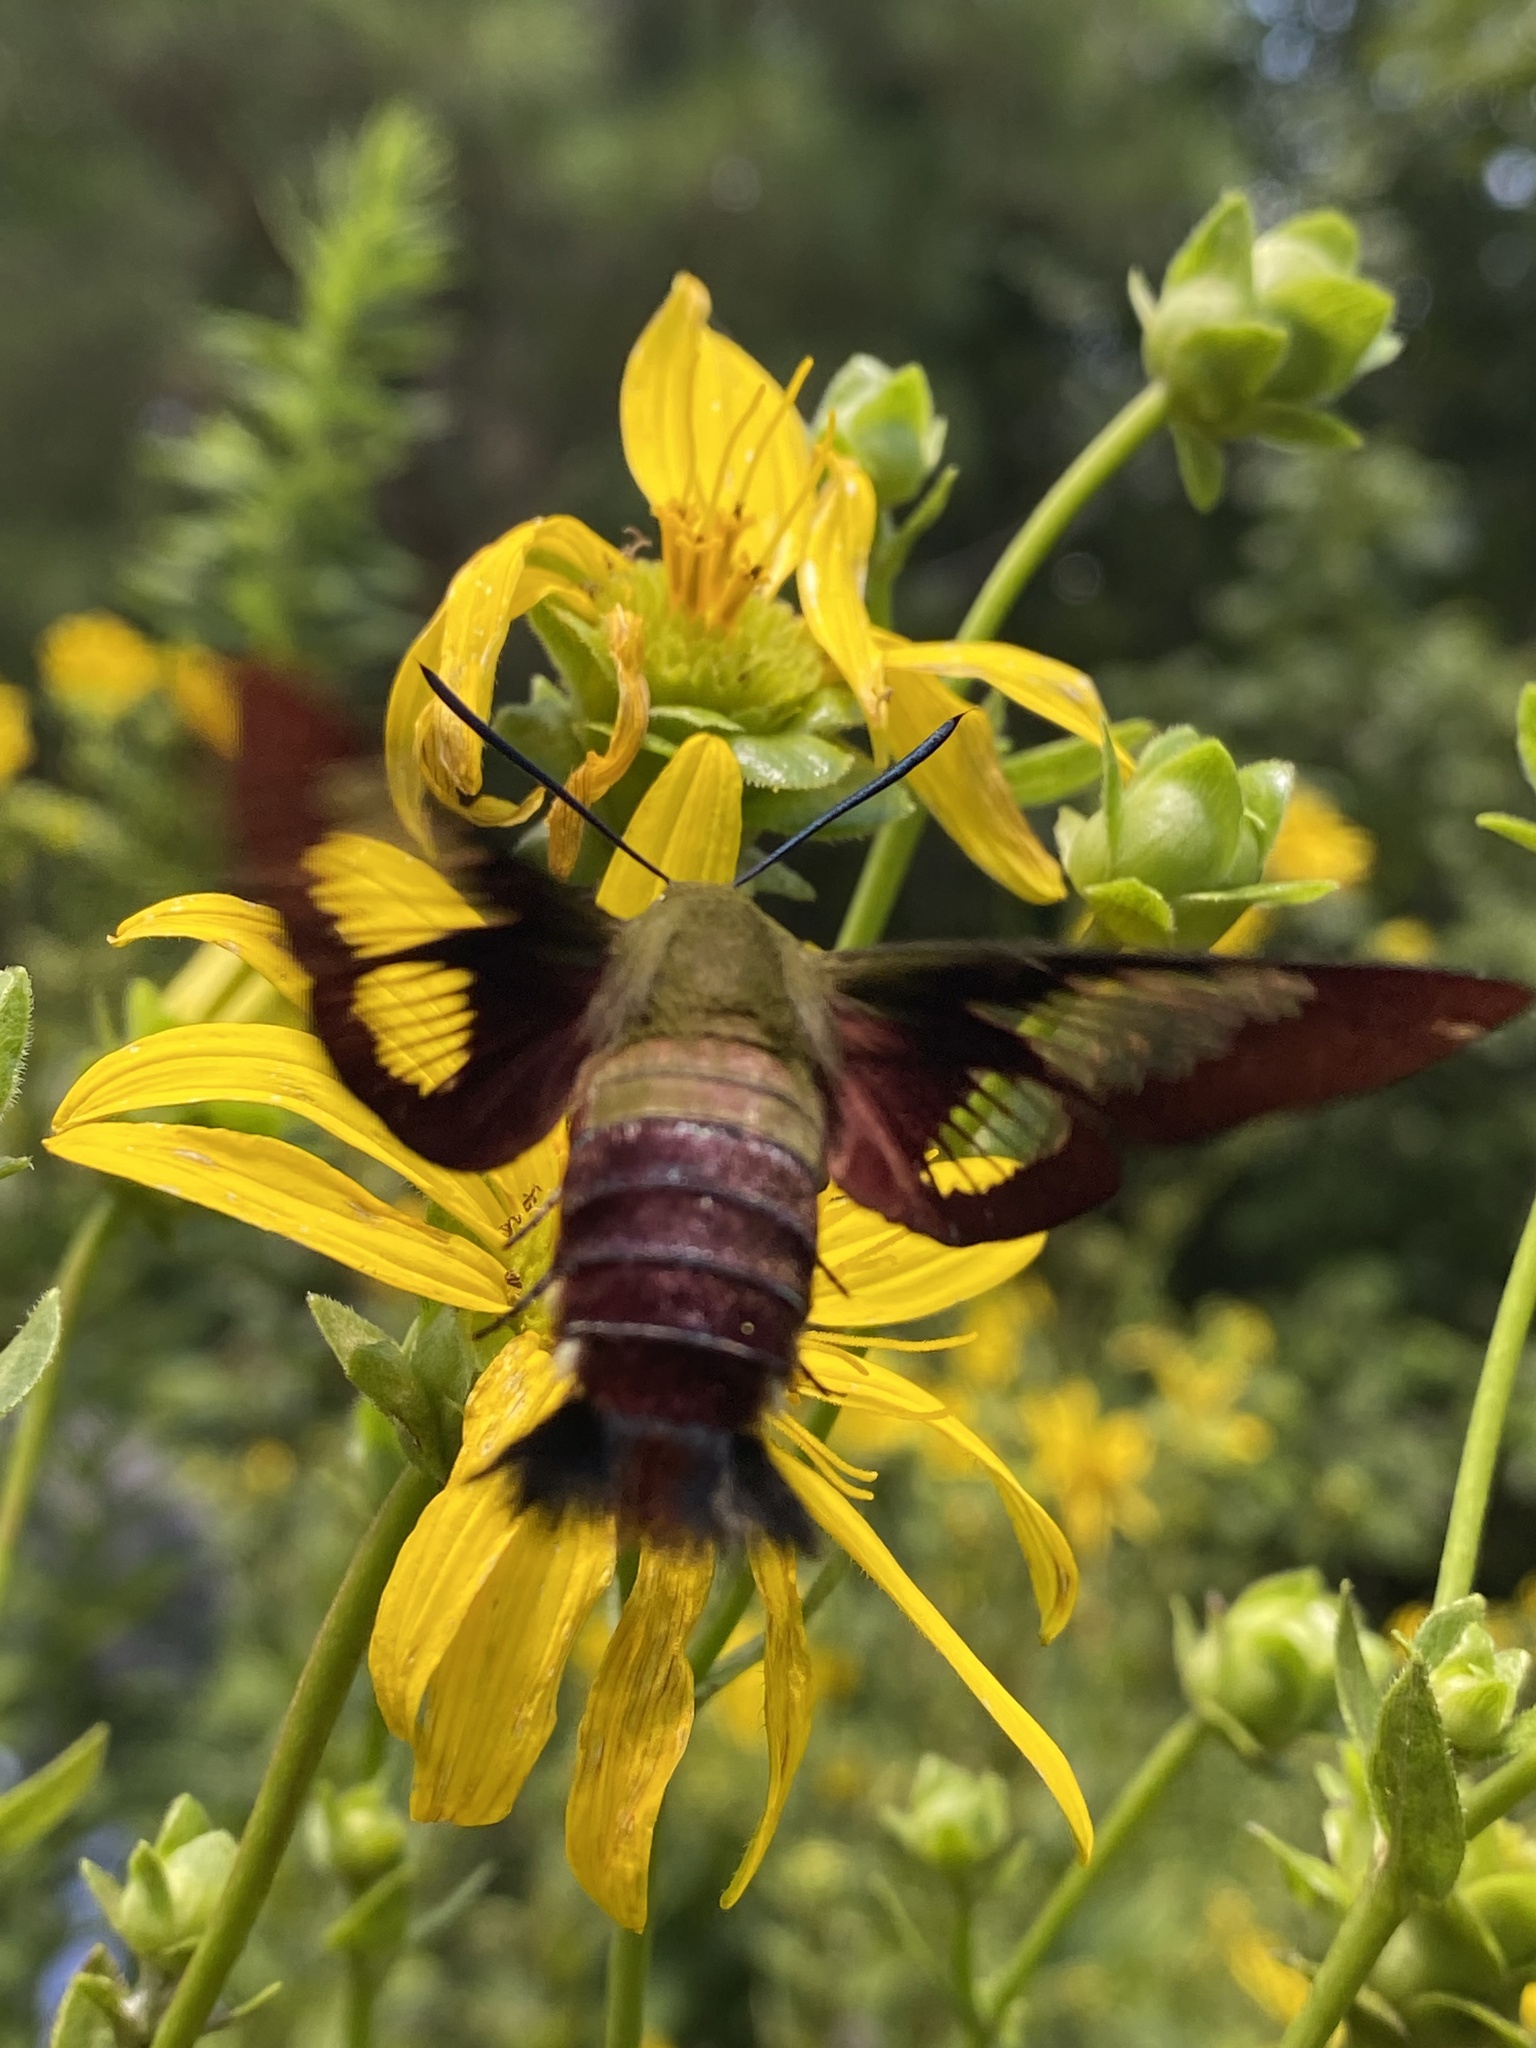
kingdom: Animalia
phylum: Arthropoda
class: Insecta
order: Lepidoptera
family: Sphingidae
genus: Hemaris
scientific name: Hemaris thysbe
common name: Common clear-wing
